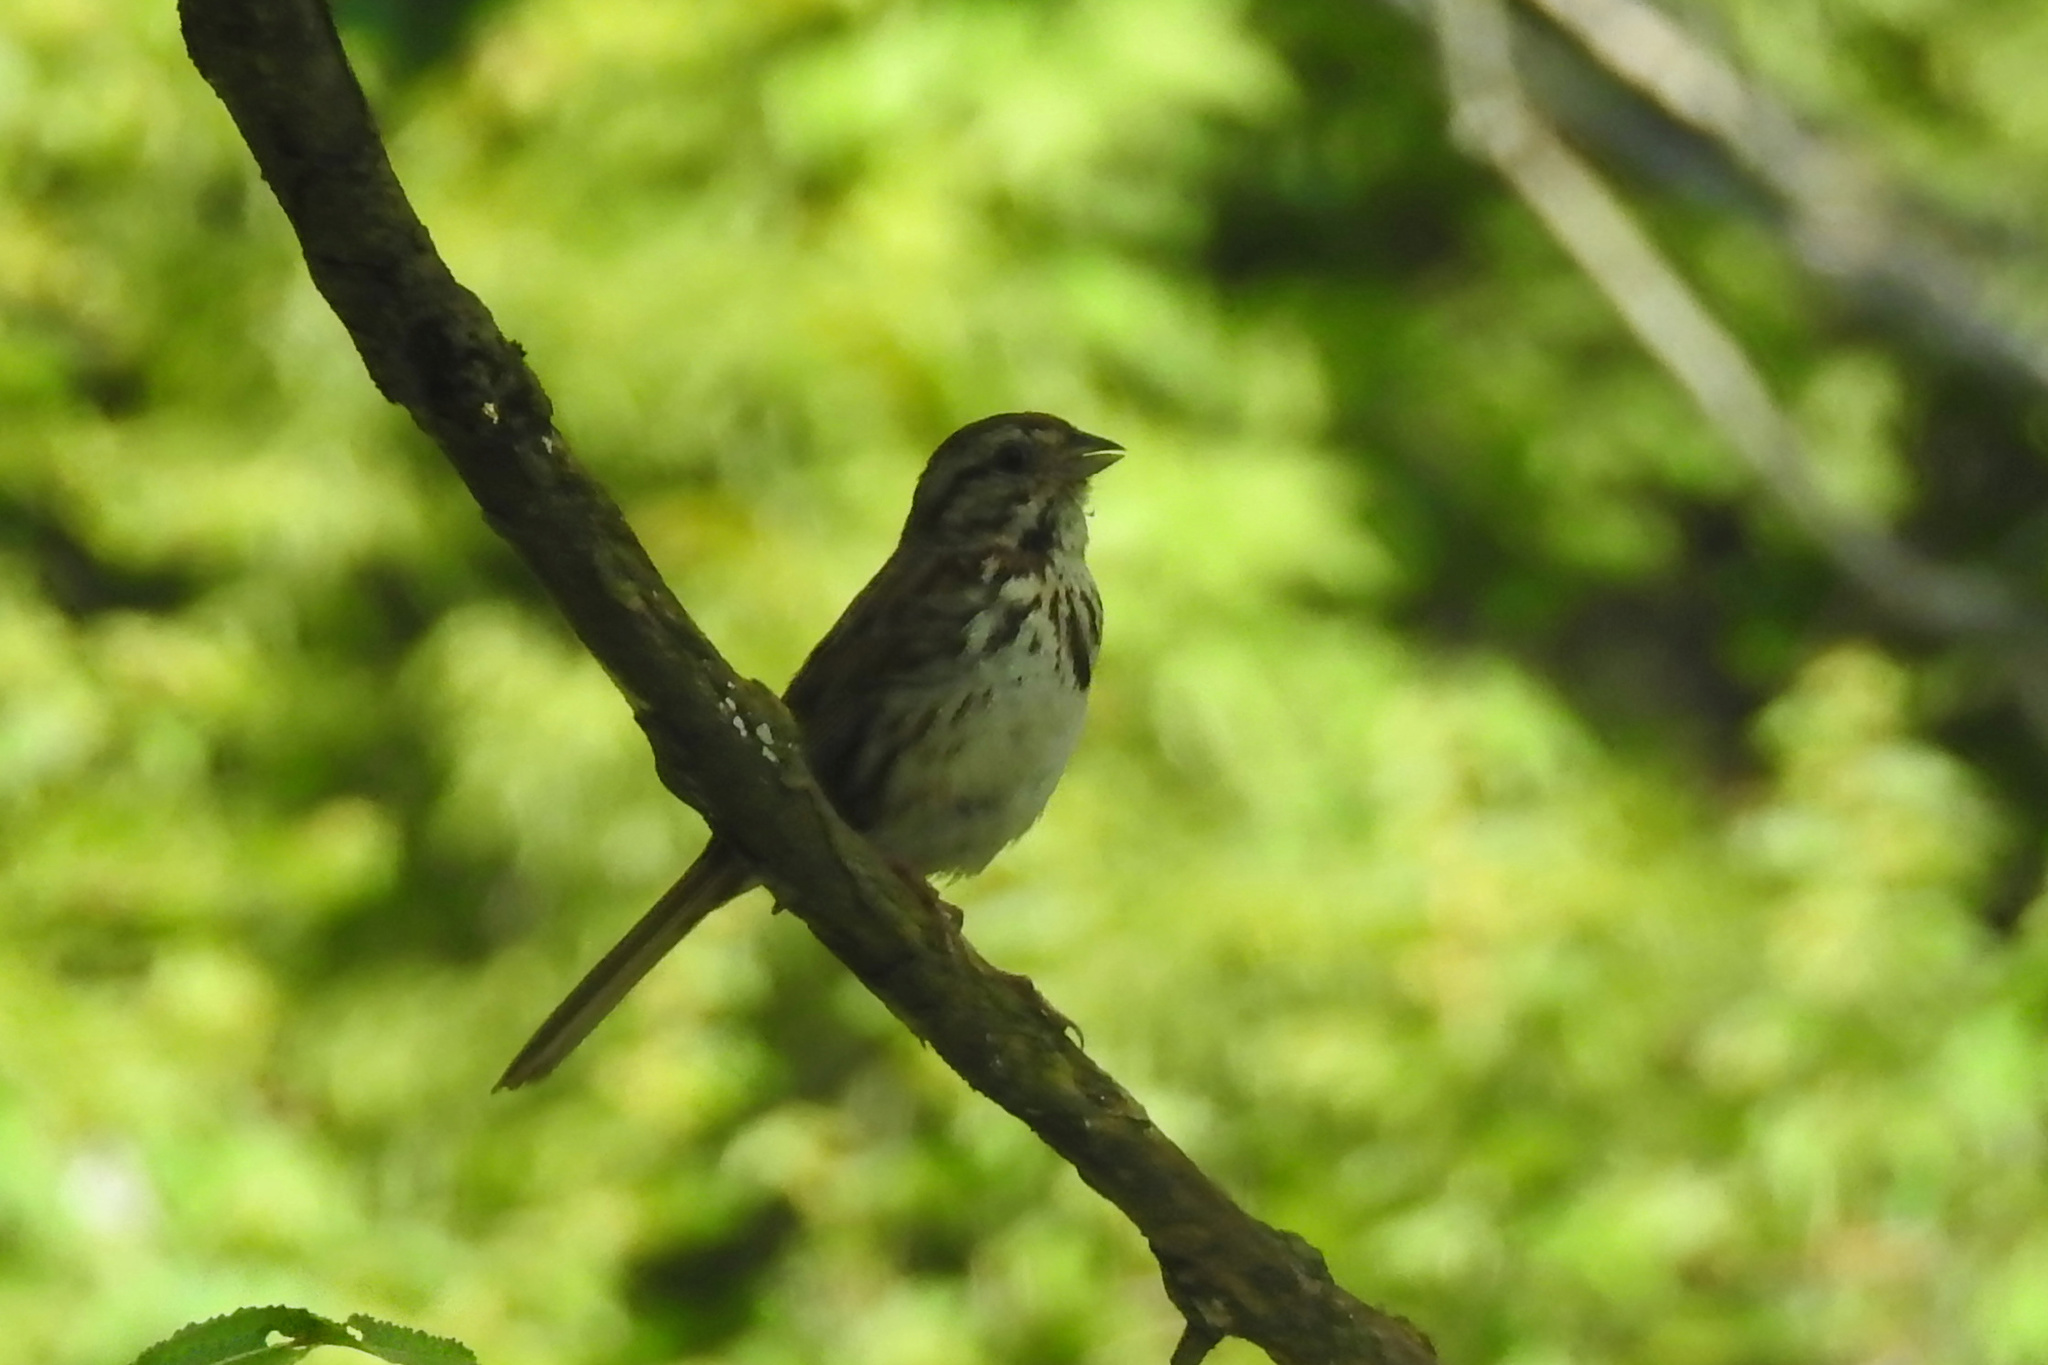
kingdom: Animalia
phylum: Chordata
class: Aves
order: Passeriformes
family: Passerellidae
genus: Melospiza
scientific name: Melospiza melodia
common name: Song sparrow
